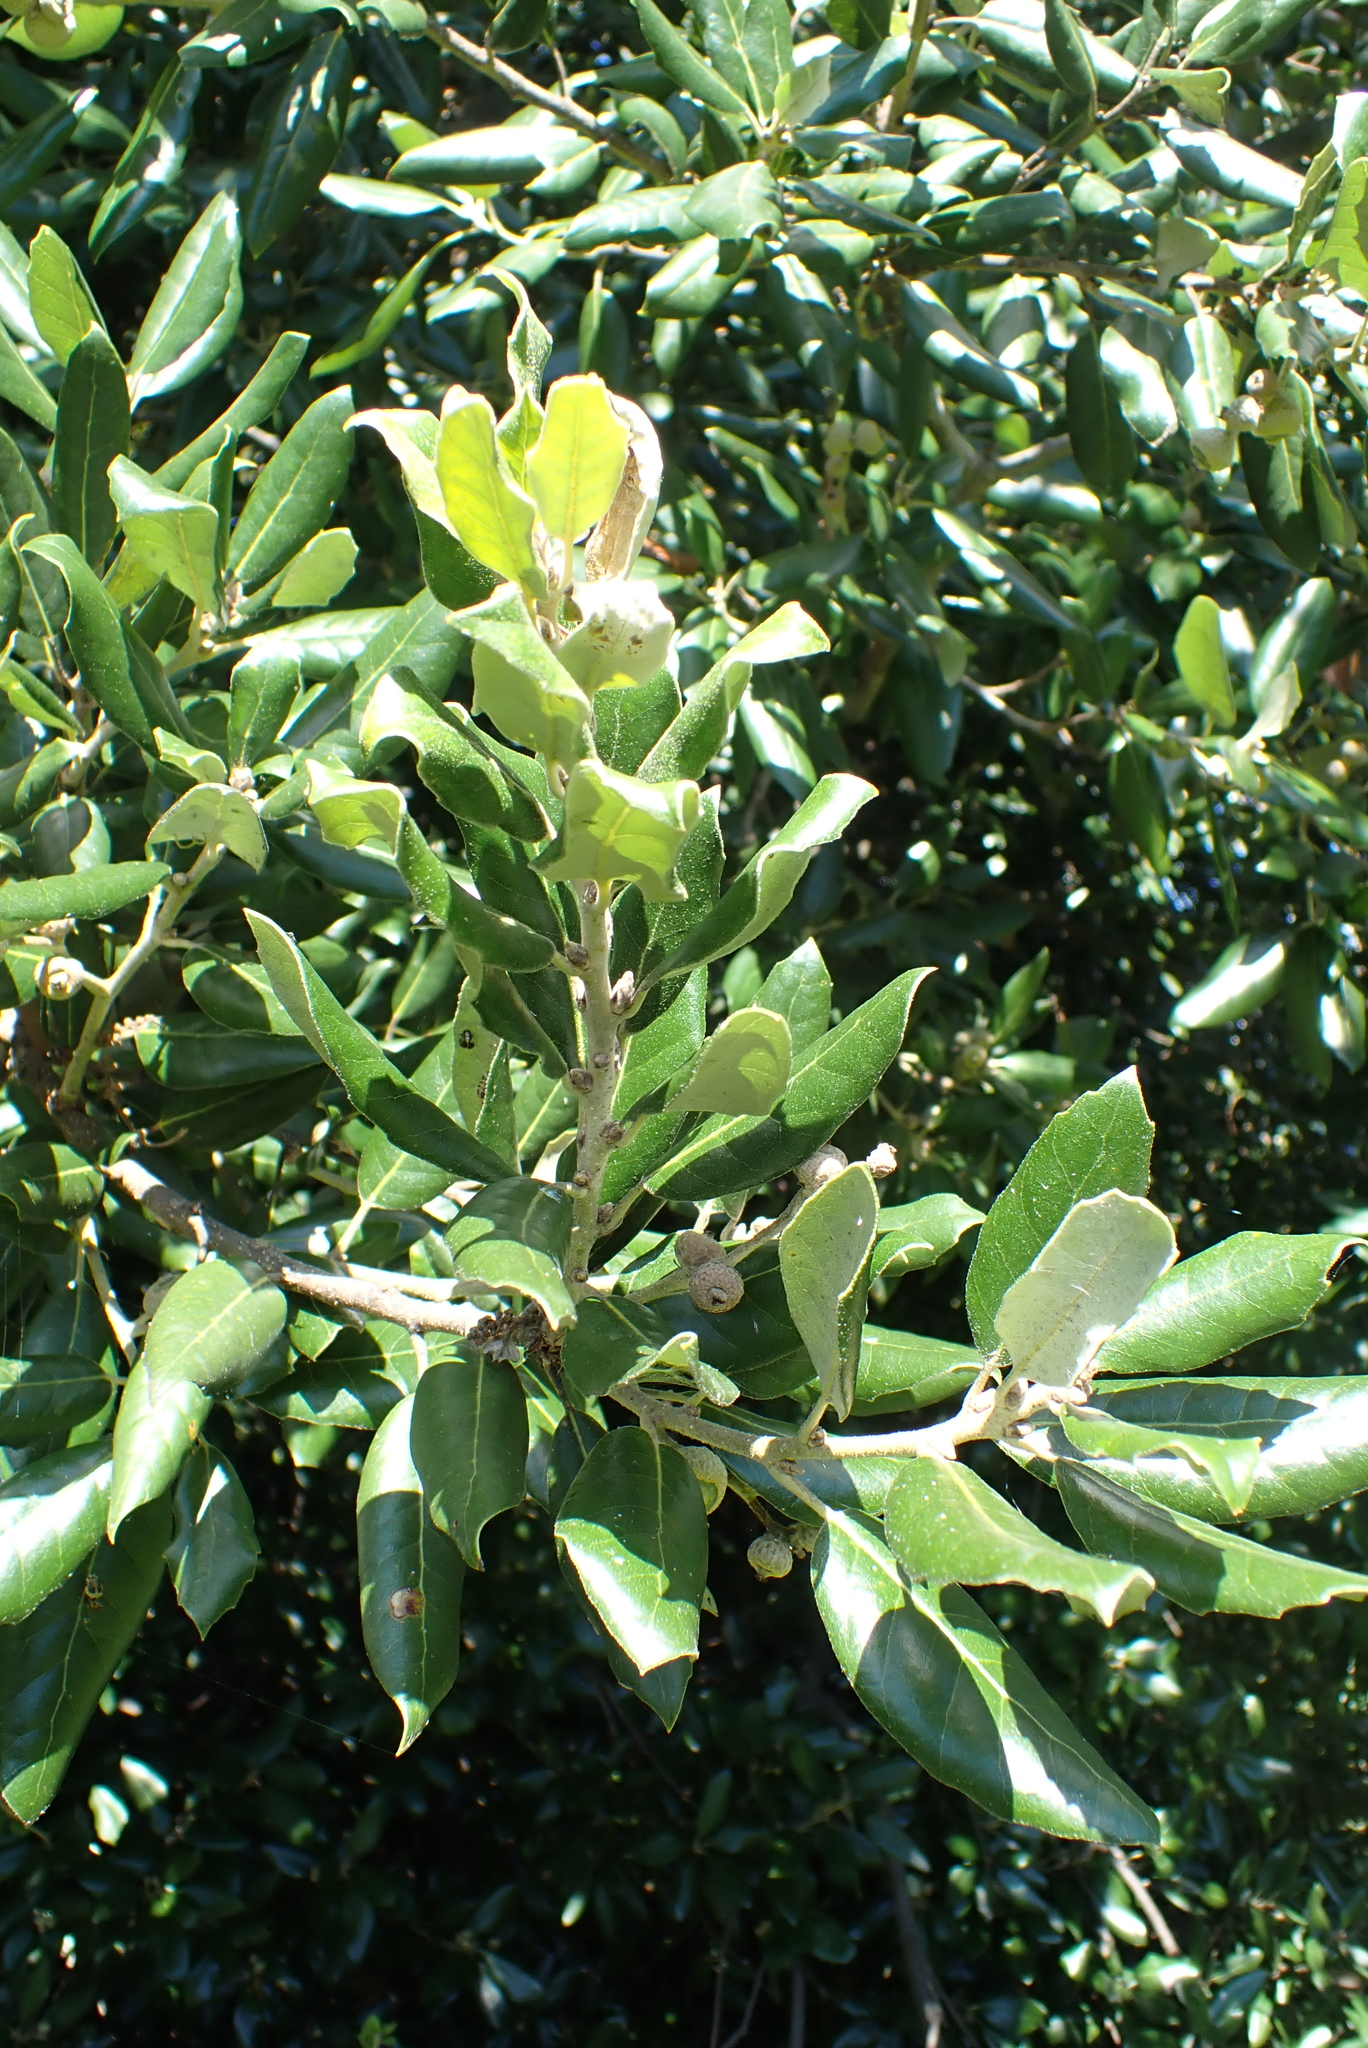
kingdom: Plantae
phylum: Tracheophyta
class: Magnoliopsida
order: Fagales
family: Fagaceae
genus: Quercus
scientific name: Quercus ilex
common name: Evergreen oak
